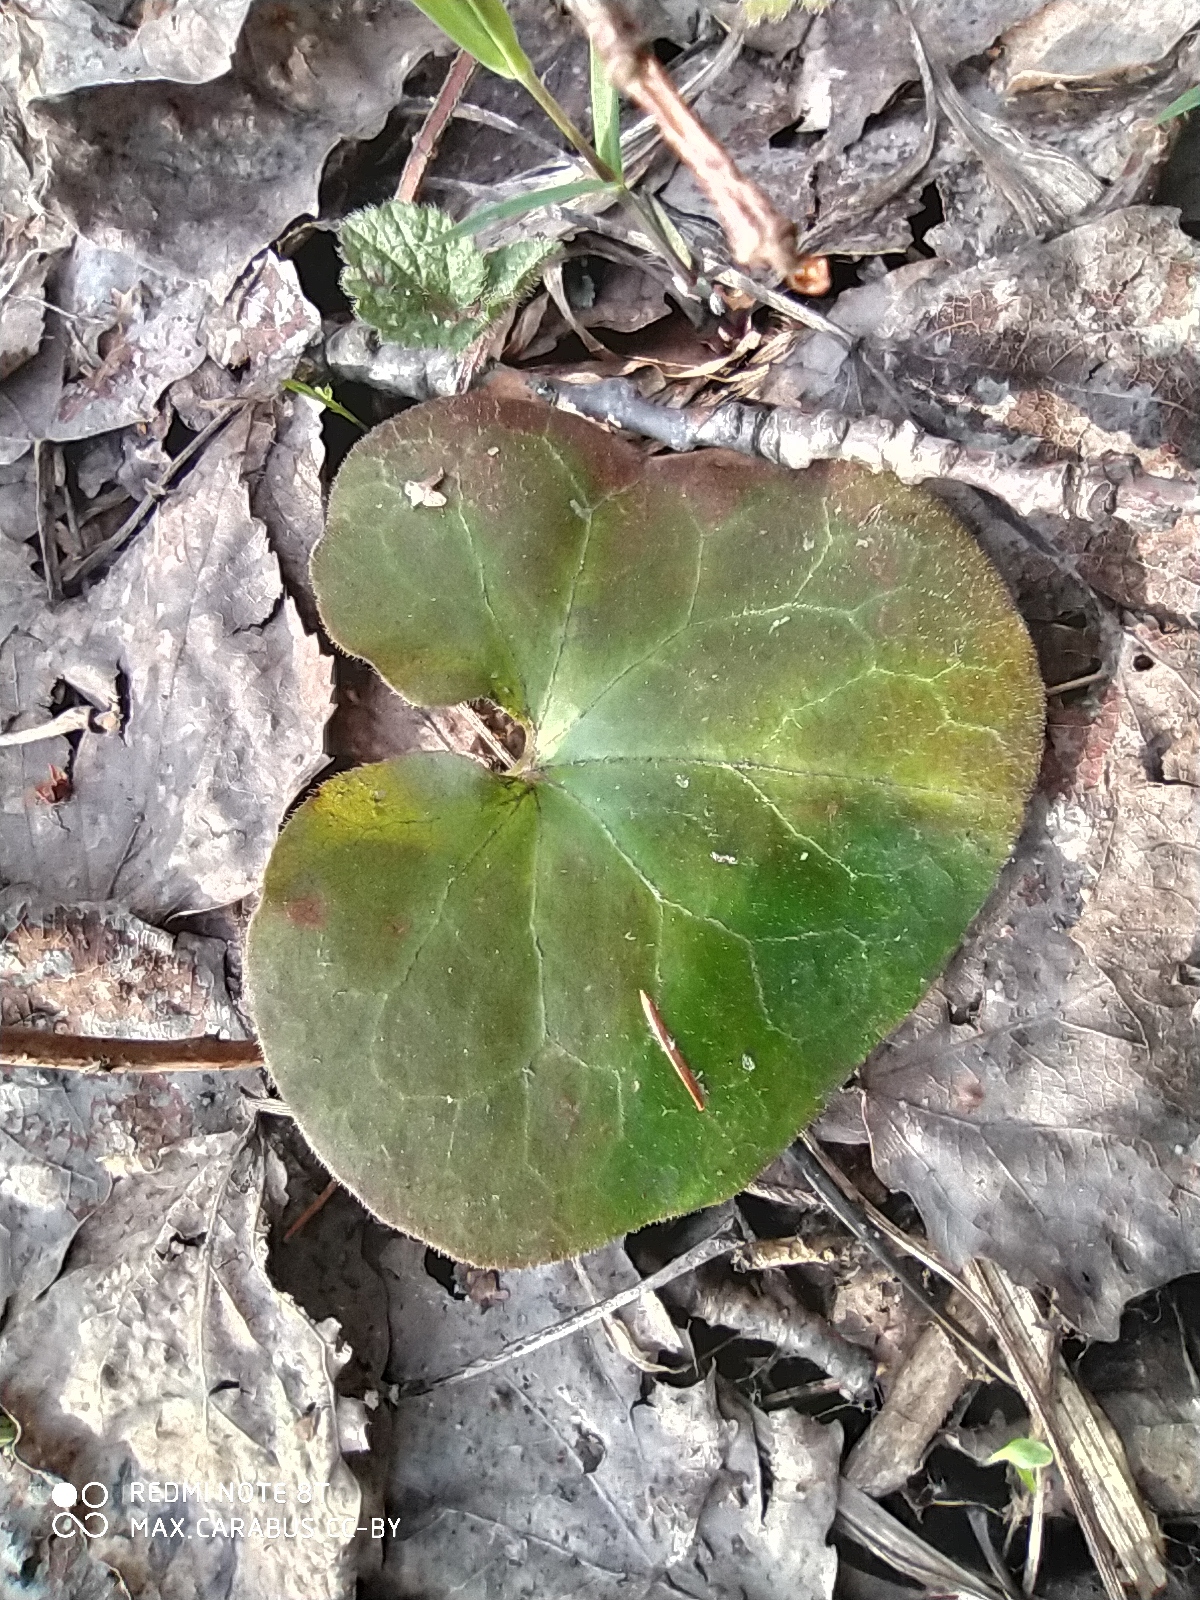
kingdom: Plantae
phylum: Tracheophyta
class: Magnoliopsida
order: Piperales
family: Aristolochiaceae
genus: Asarum
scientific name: Asarum europaeum
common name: Asarabacca
